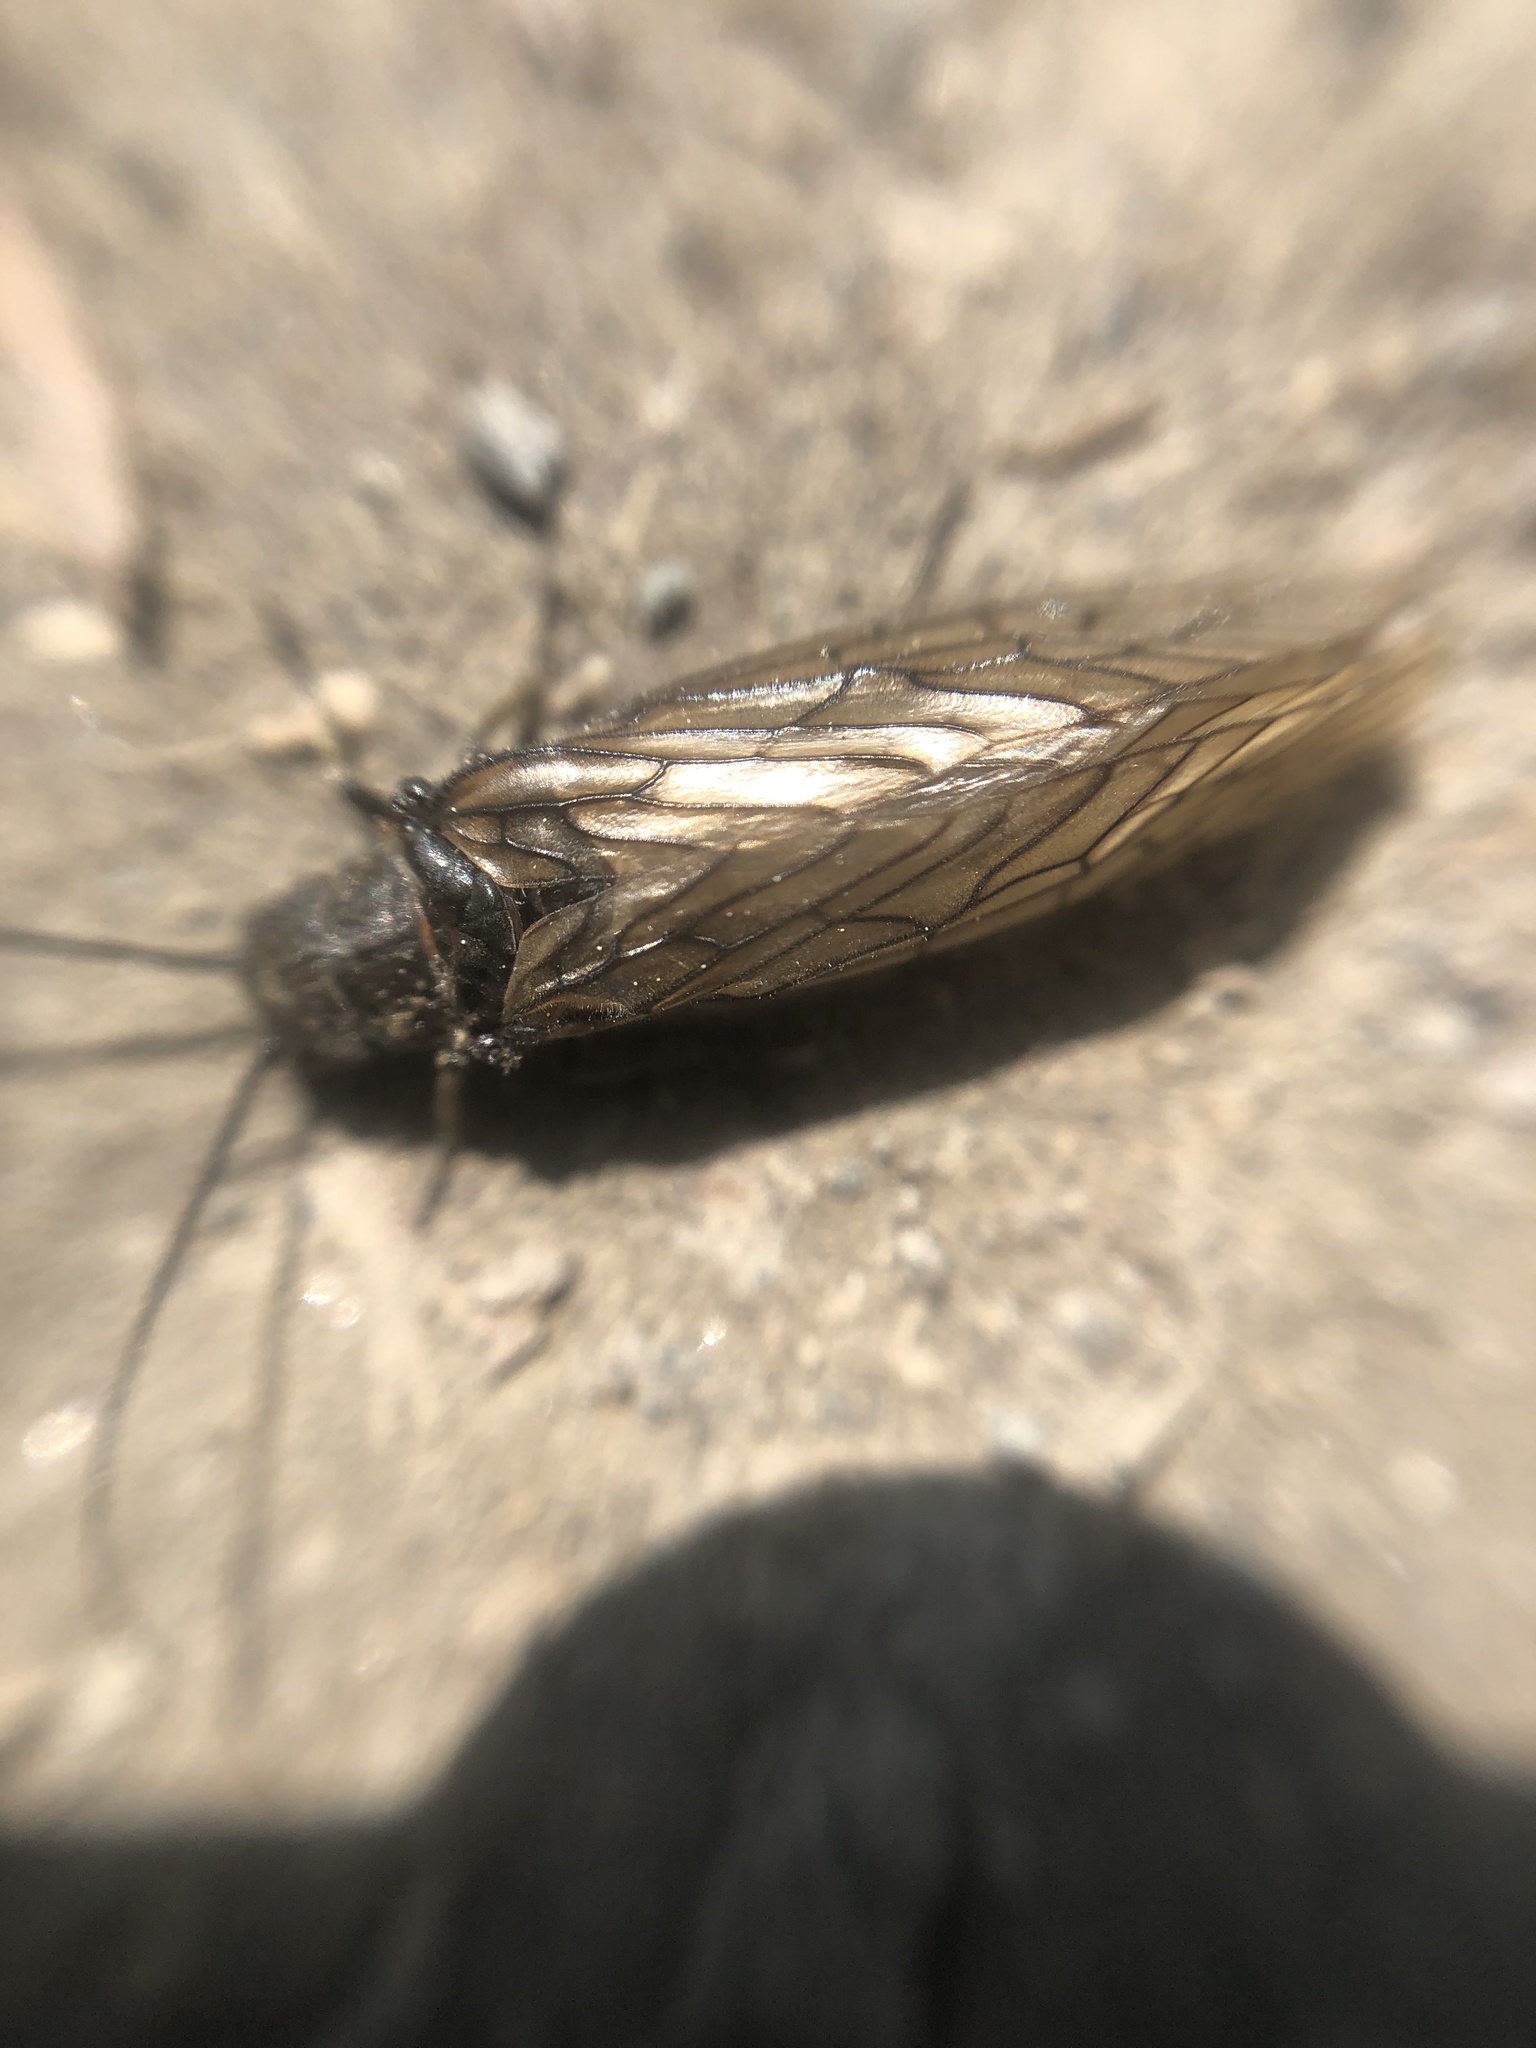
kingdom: Animalia
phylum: Arthropoda
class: Insecta
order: Megaloptera
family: Sialidae
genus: Sialis
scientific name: Sialis
